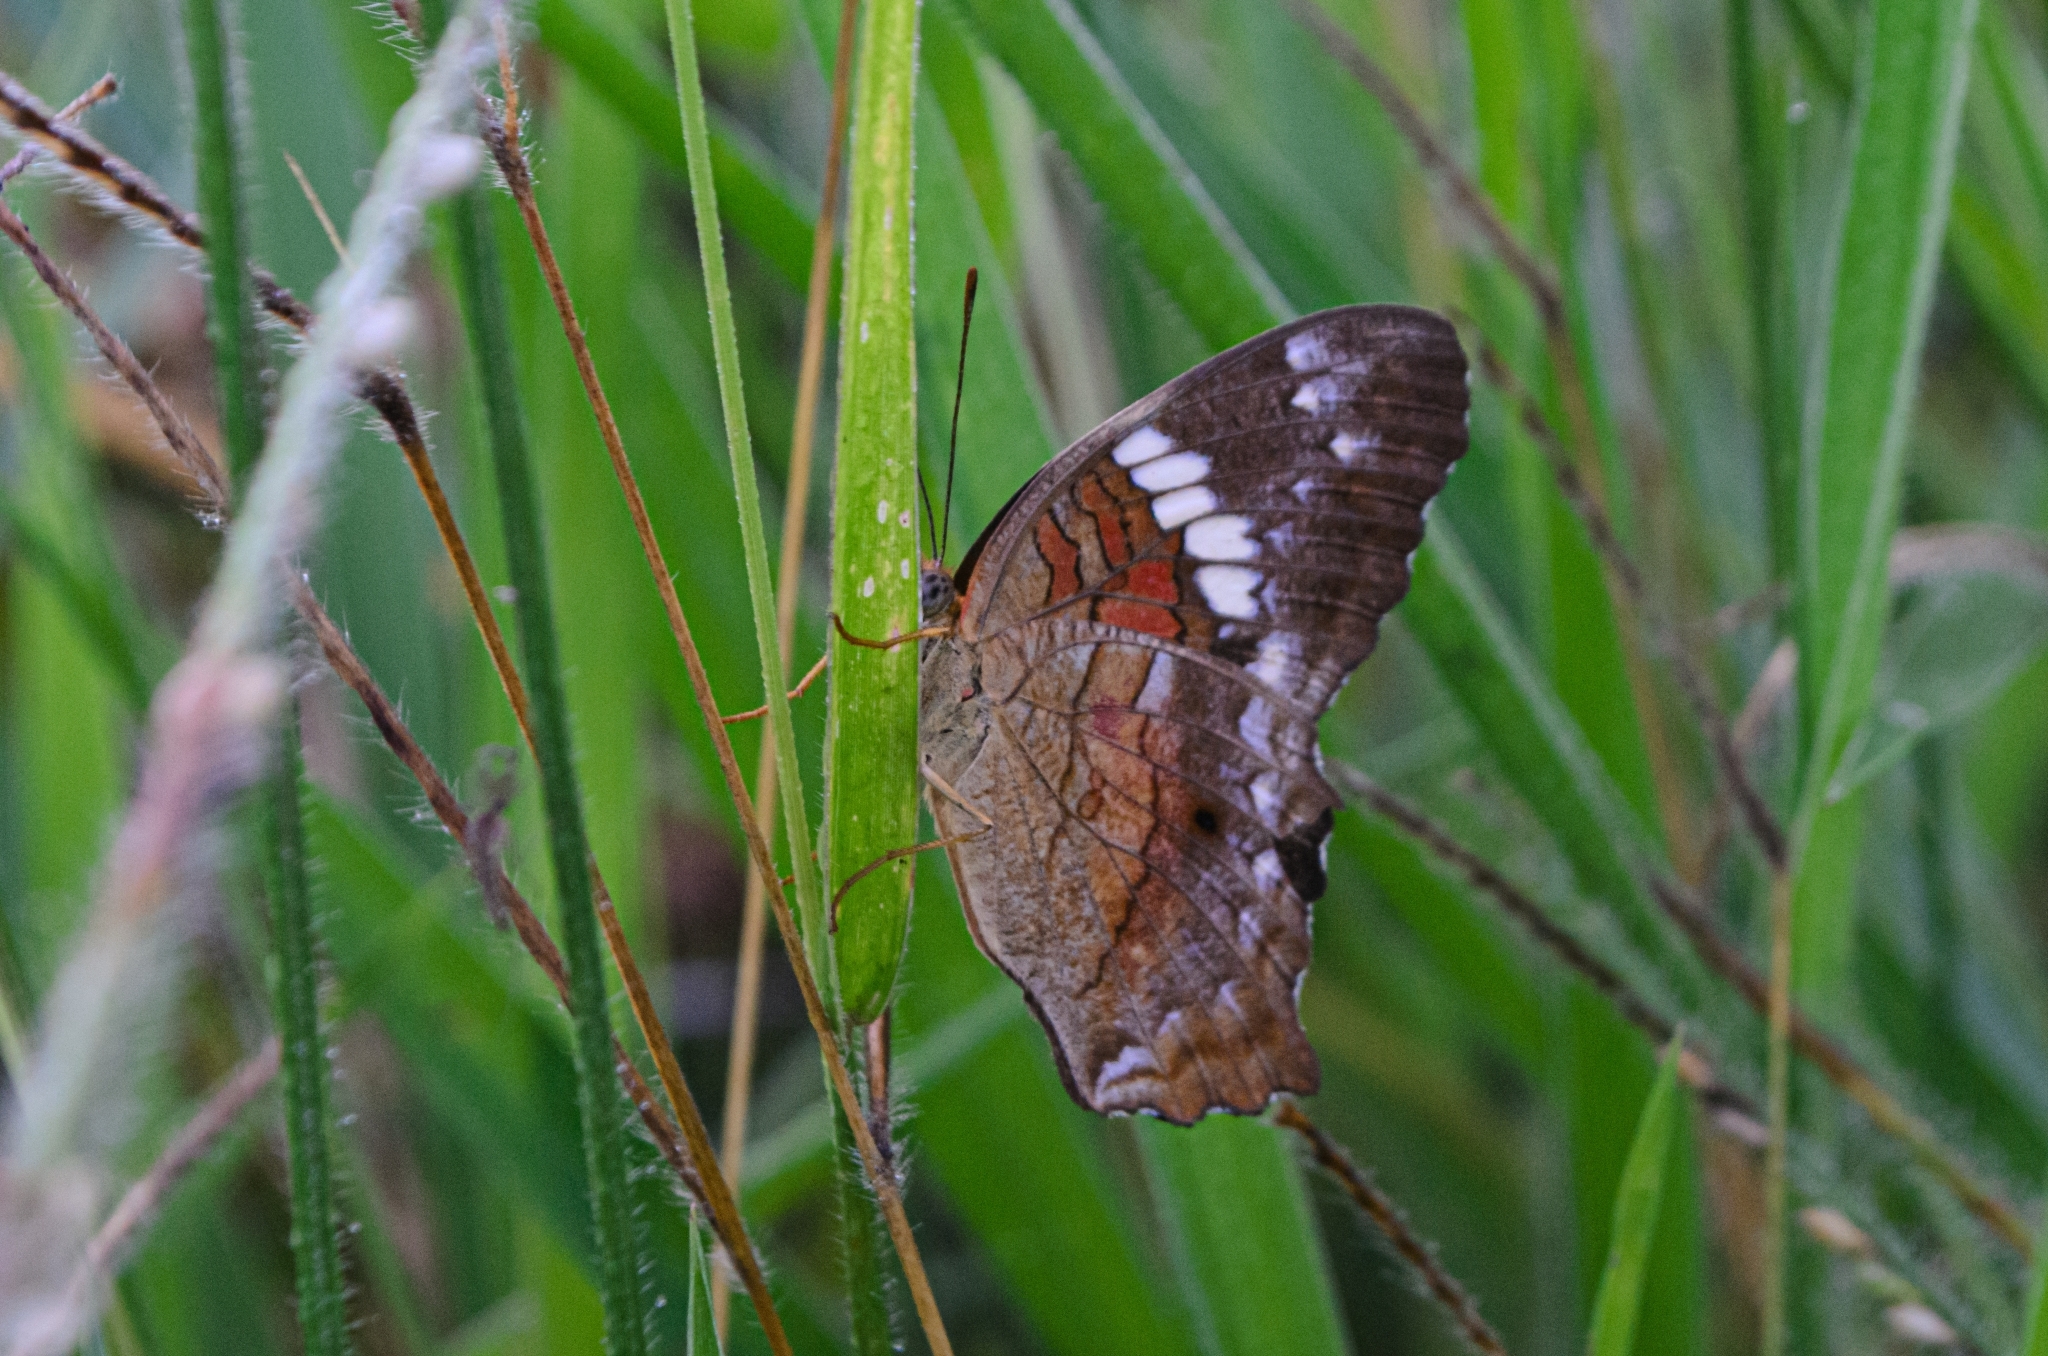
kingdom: Animalia
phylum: Arthropoda
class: Insecta
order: Lepidoptera
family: Nymphalidae
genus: Anartia
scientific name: Anartia amathea
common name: Red peacock
